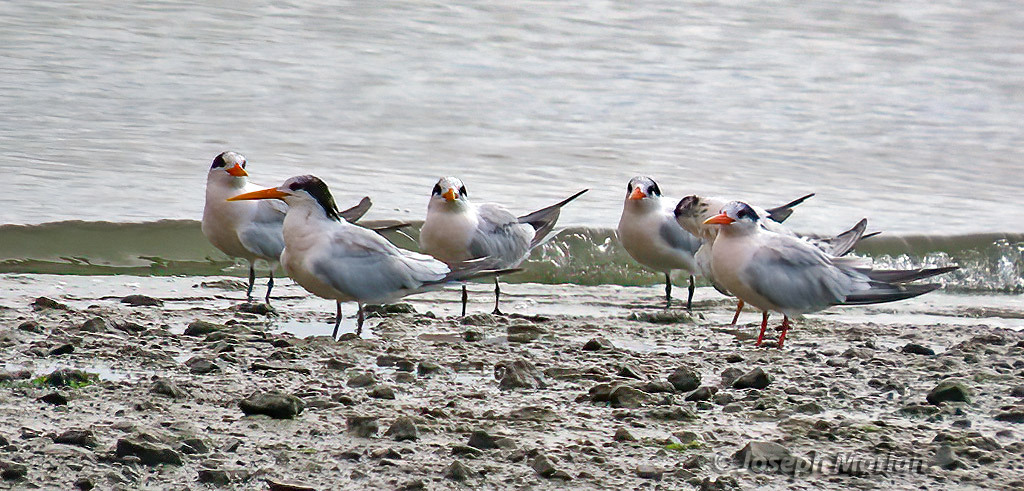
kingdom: Animalia
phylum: Chordata
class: Aves
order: Charadriiformes
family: Laridae
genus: Thalasseus
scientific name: Thalasseus elegans
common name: Elegant tern
